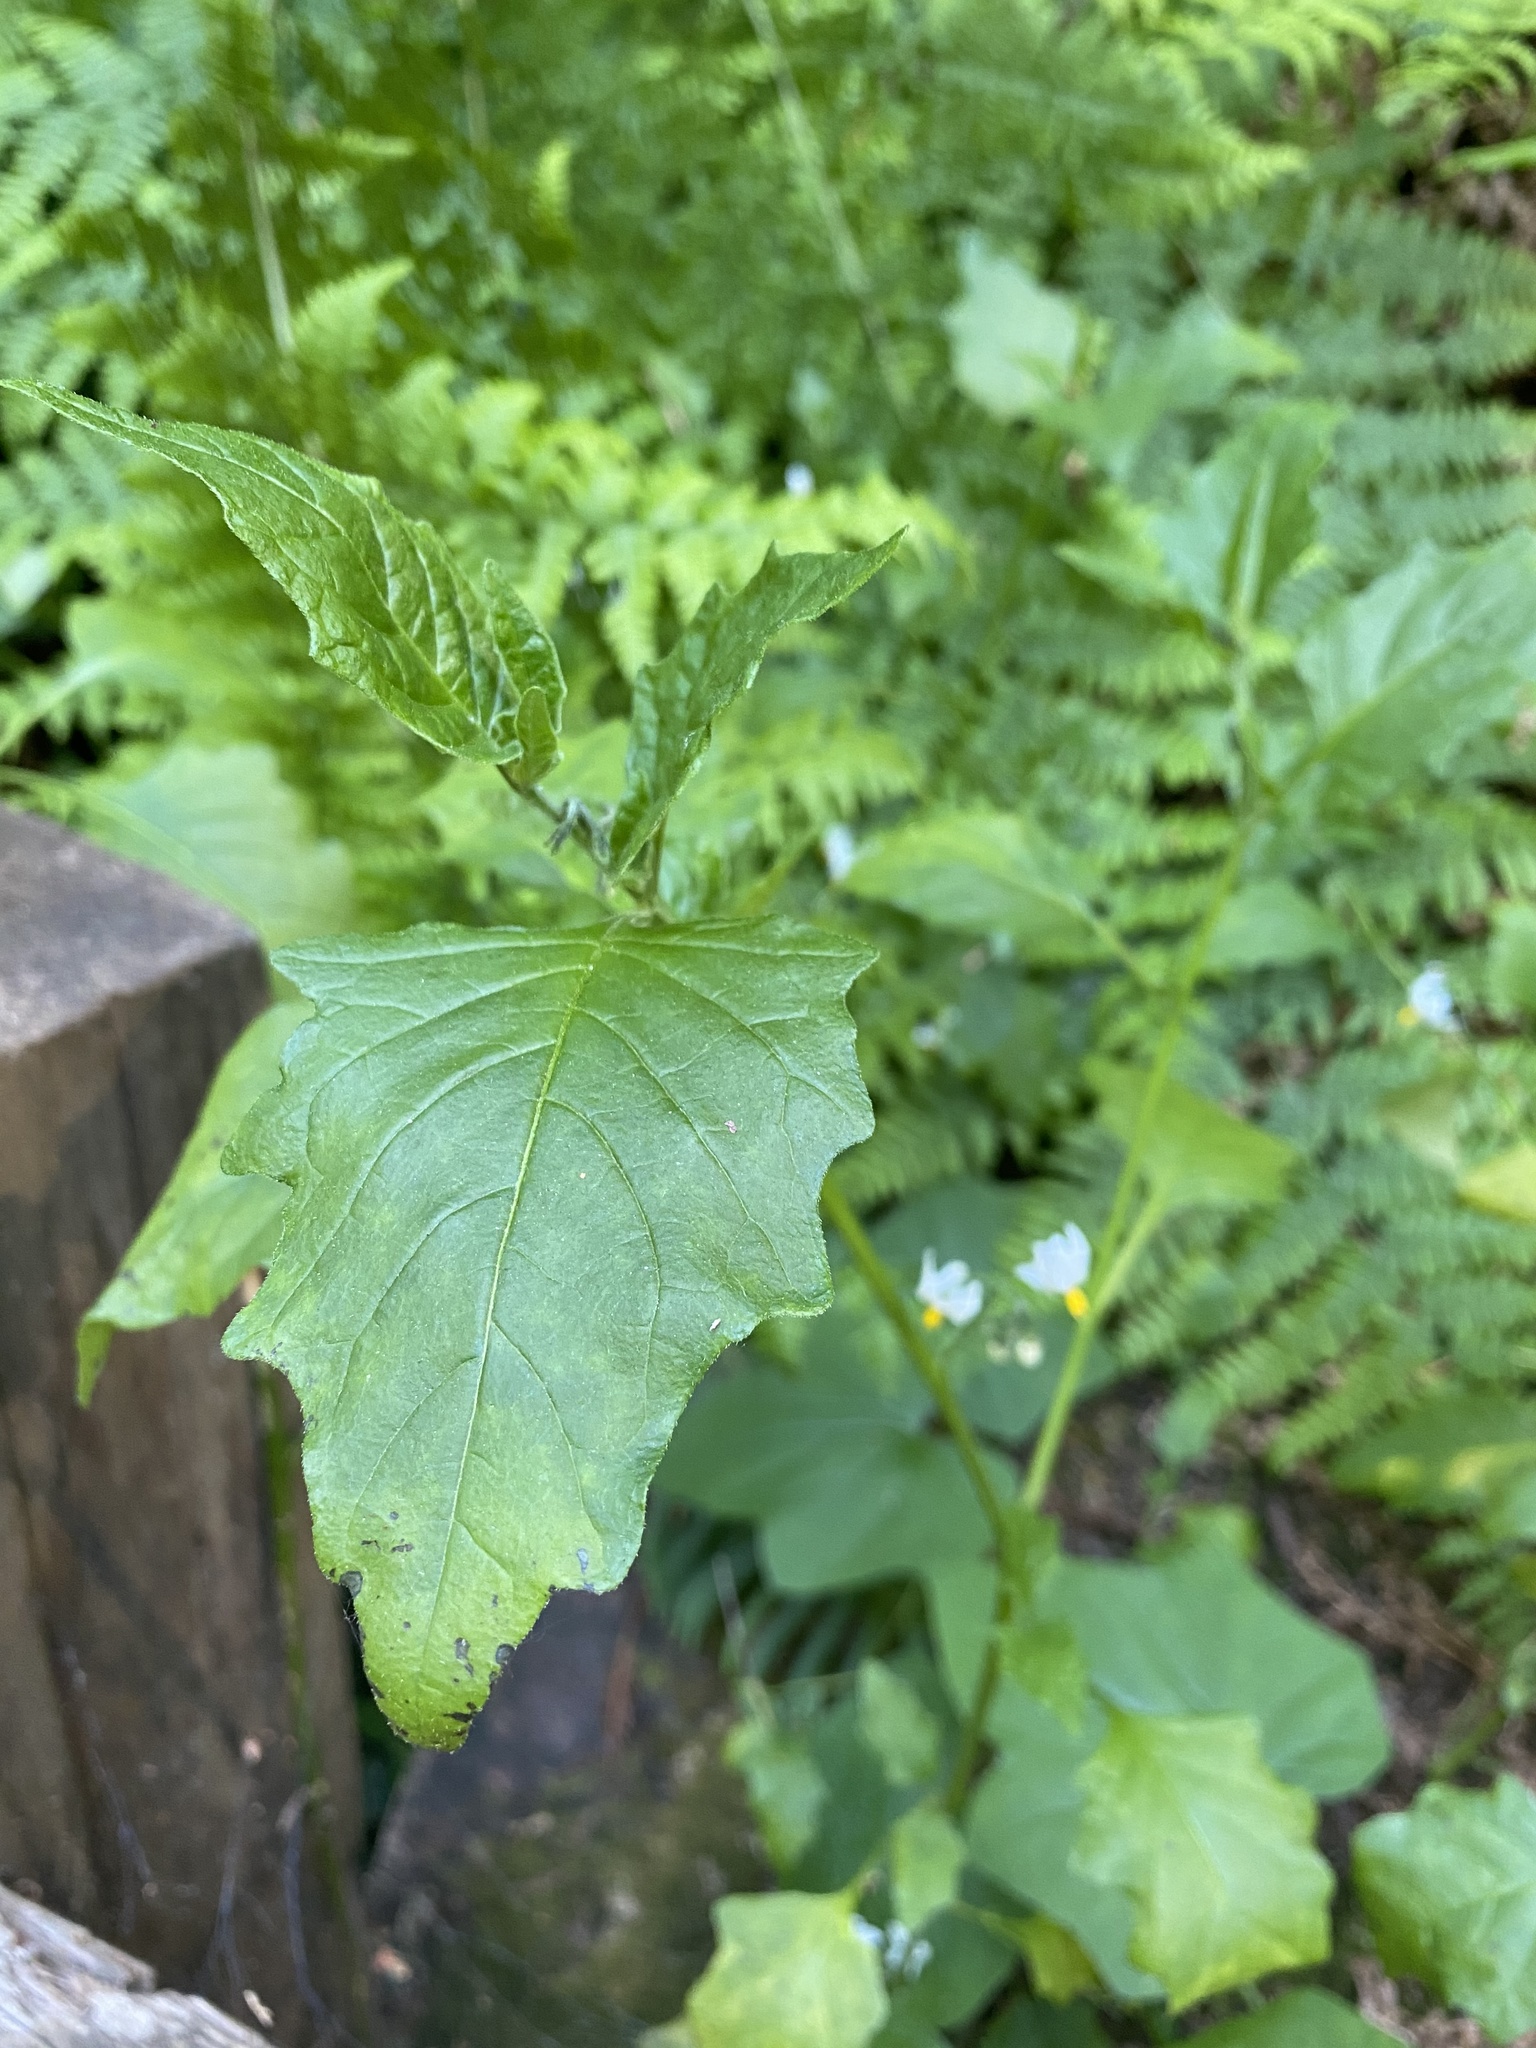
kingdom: Plantae
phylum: Tracheophyta
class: Magnoliopsida
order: Solanales
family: Solanaceae
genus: Solanum
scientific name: Solanum douglasii
